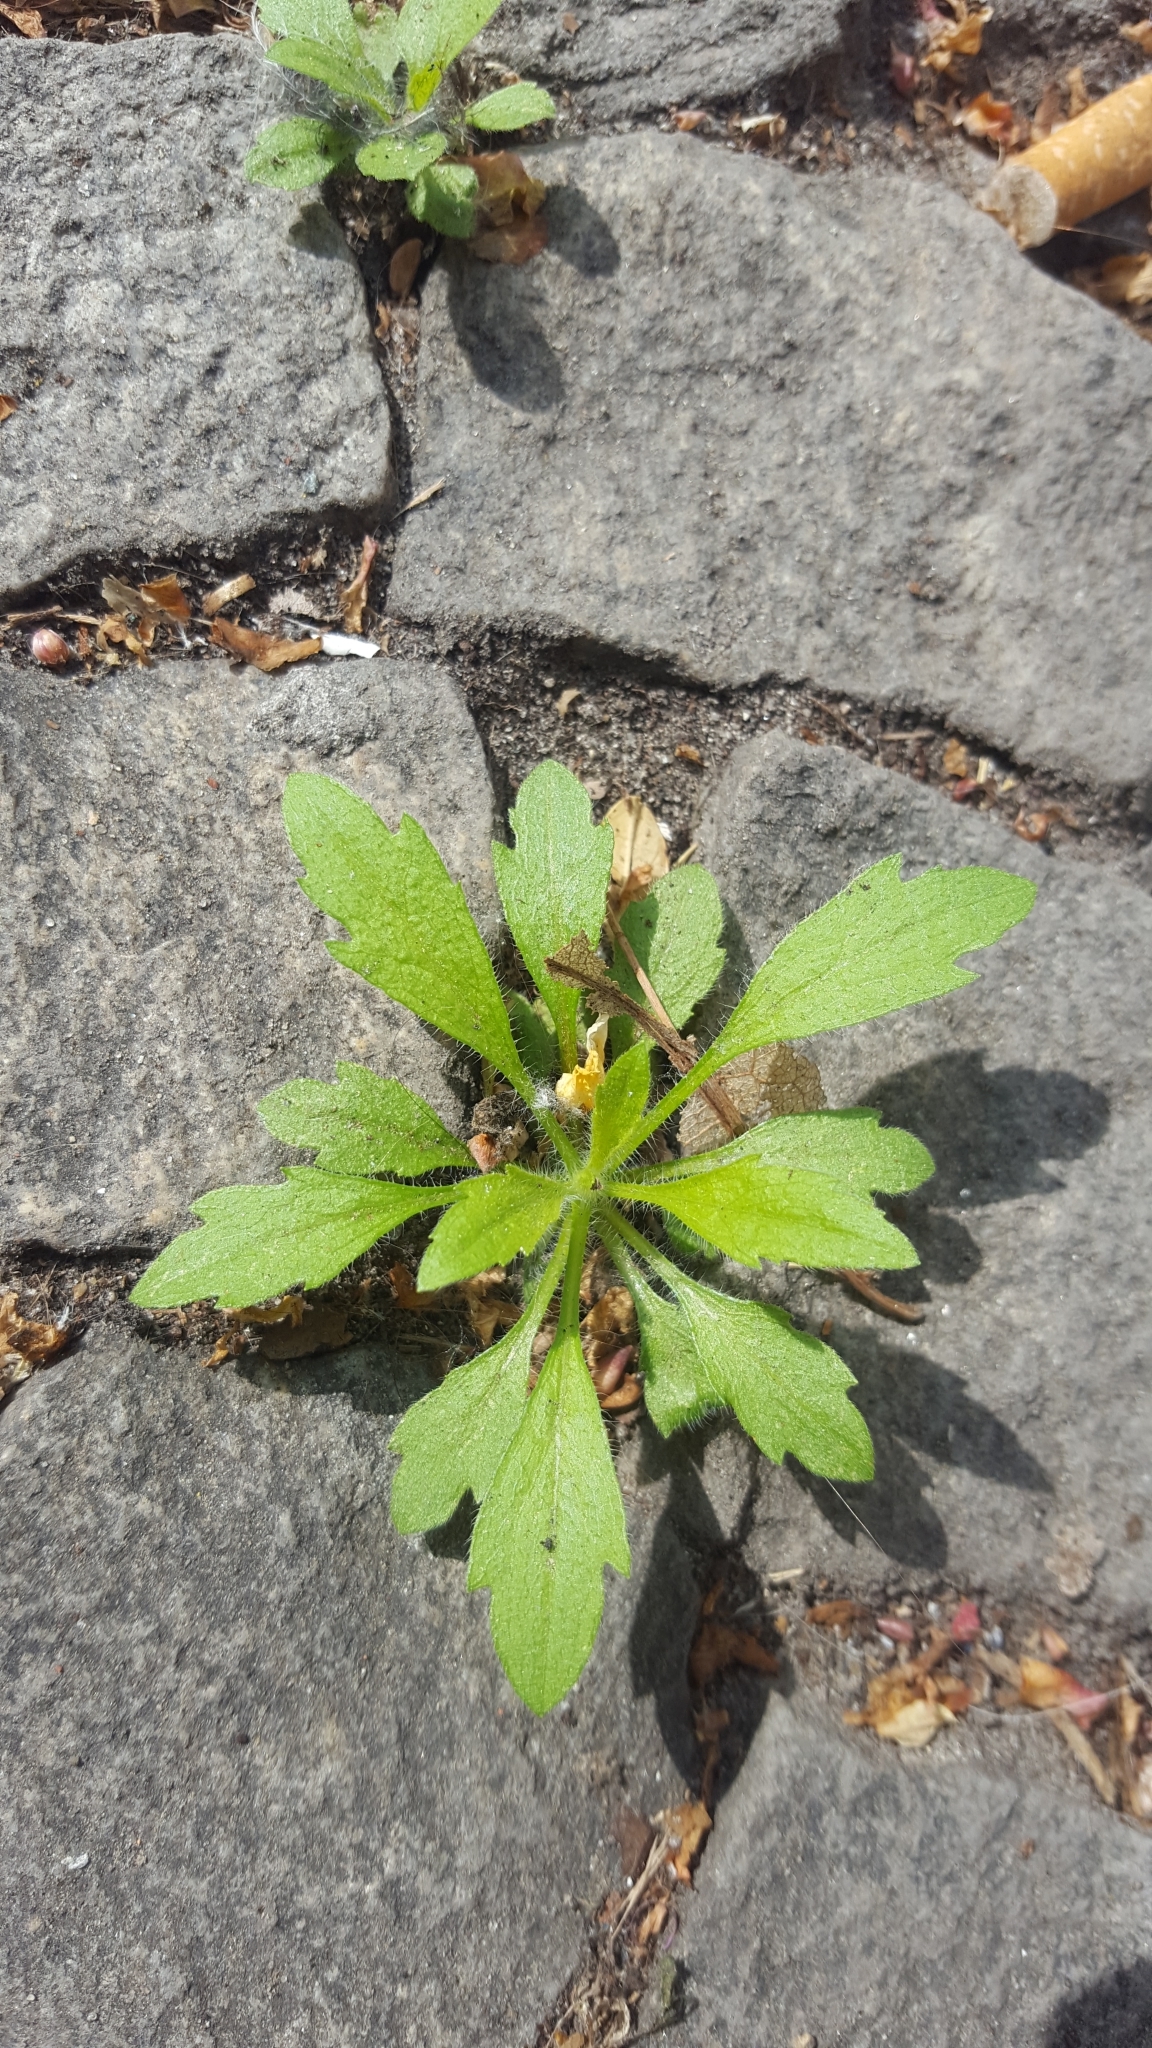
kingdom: Plantae
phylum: Tracheophyta
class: Magnoliopsida
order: Asterales
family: Asteraceae
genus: Erigeron
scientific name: Erigeron canadensis
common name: Canadian fleabane
